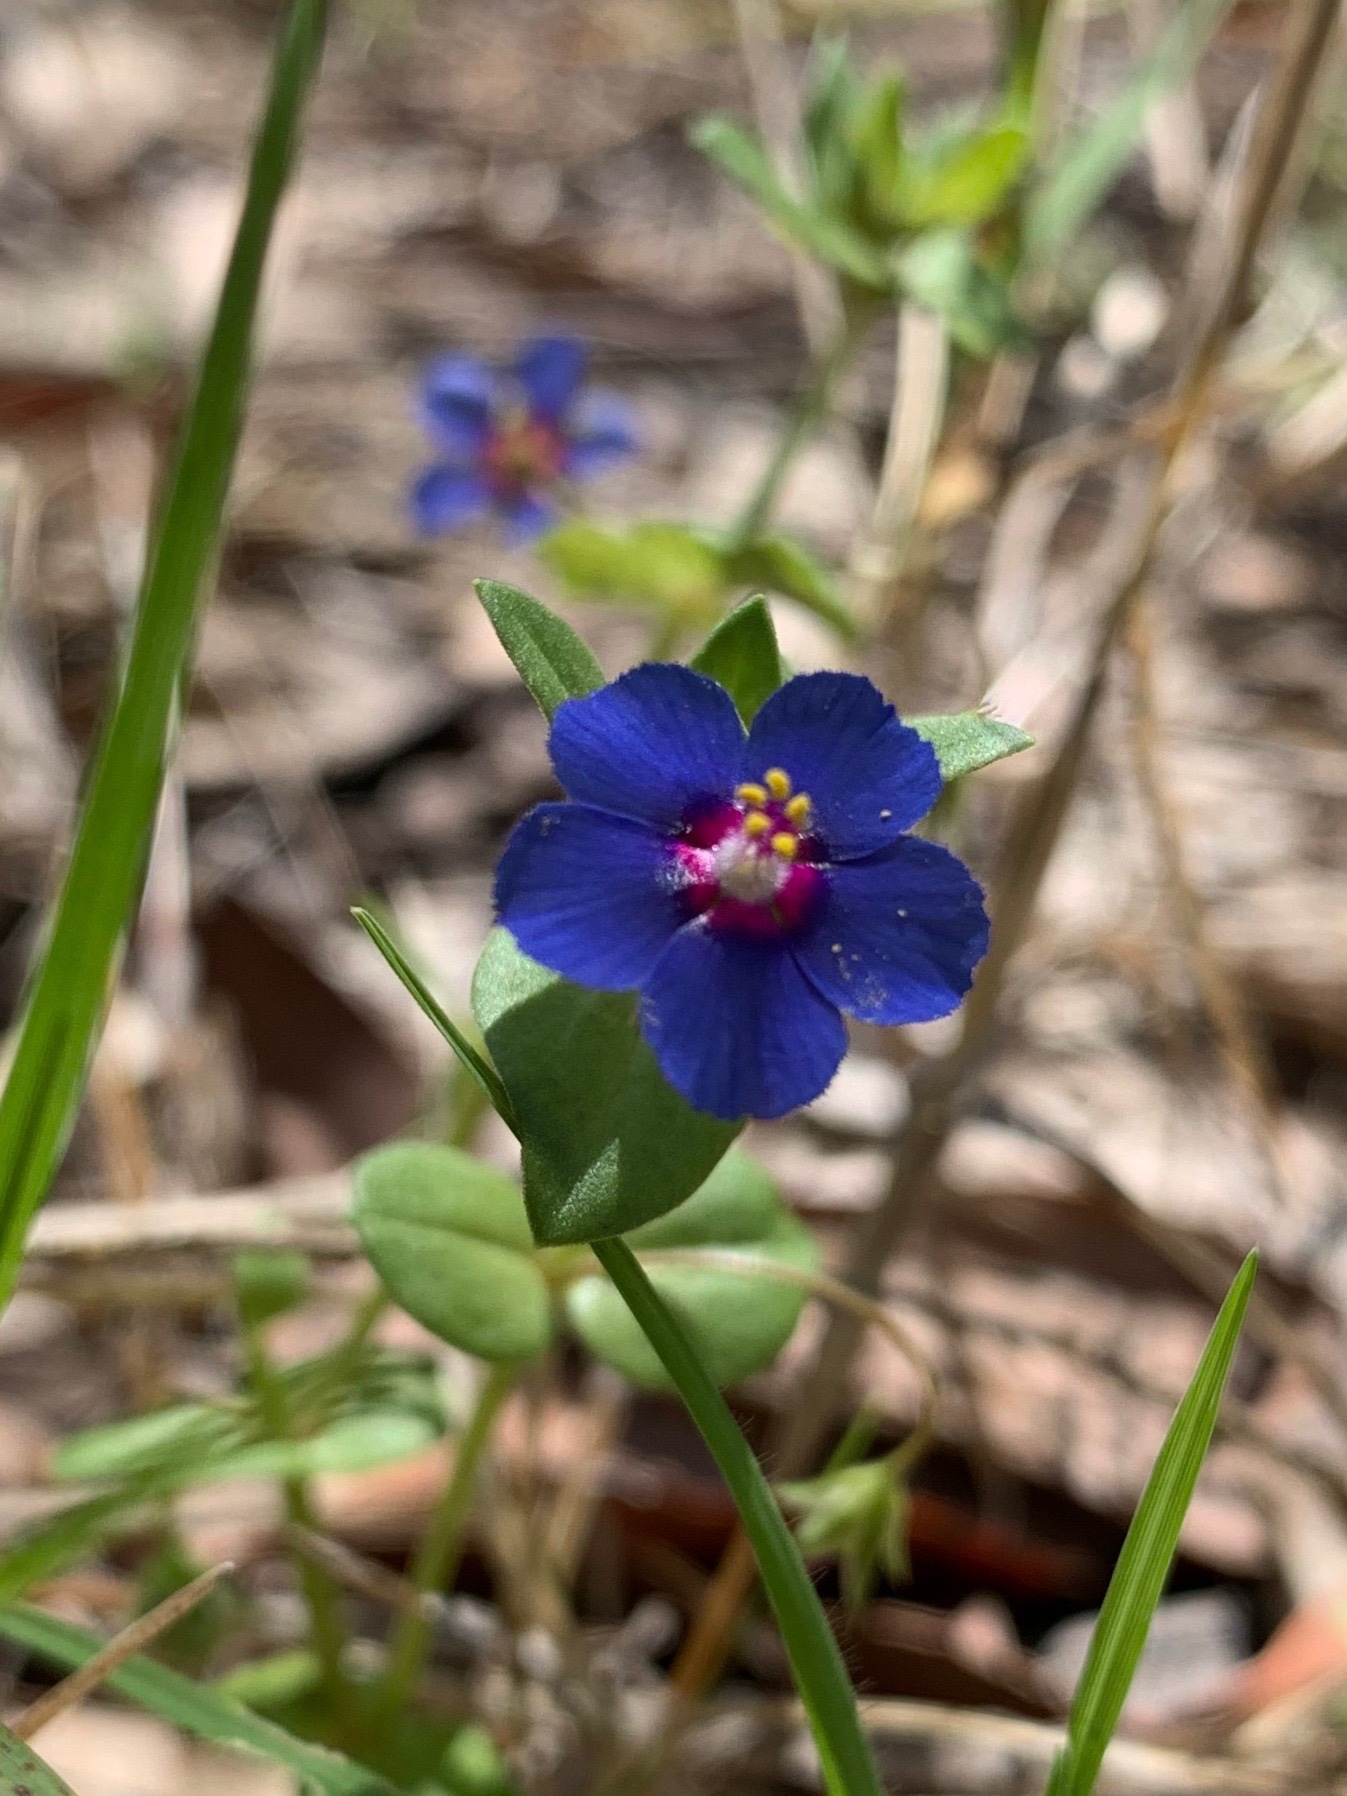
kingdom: Plantae
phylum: Tracheophyta
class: Magnoliopsida
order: Ericales
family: Primulaceae
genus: Lysimachia
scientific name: Lysimachia loeflingii
